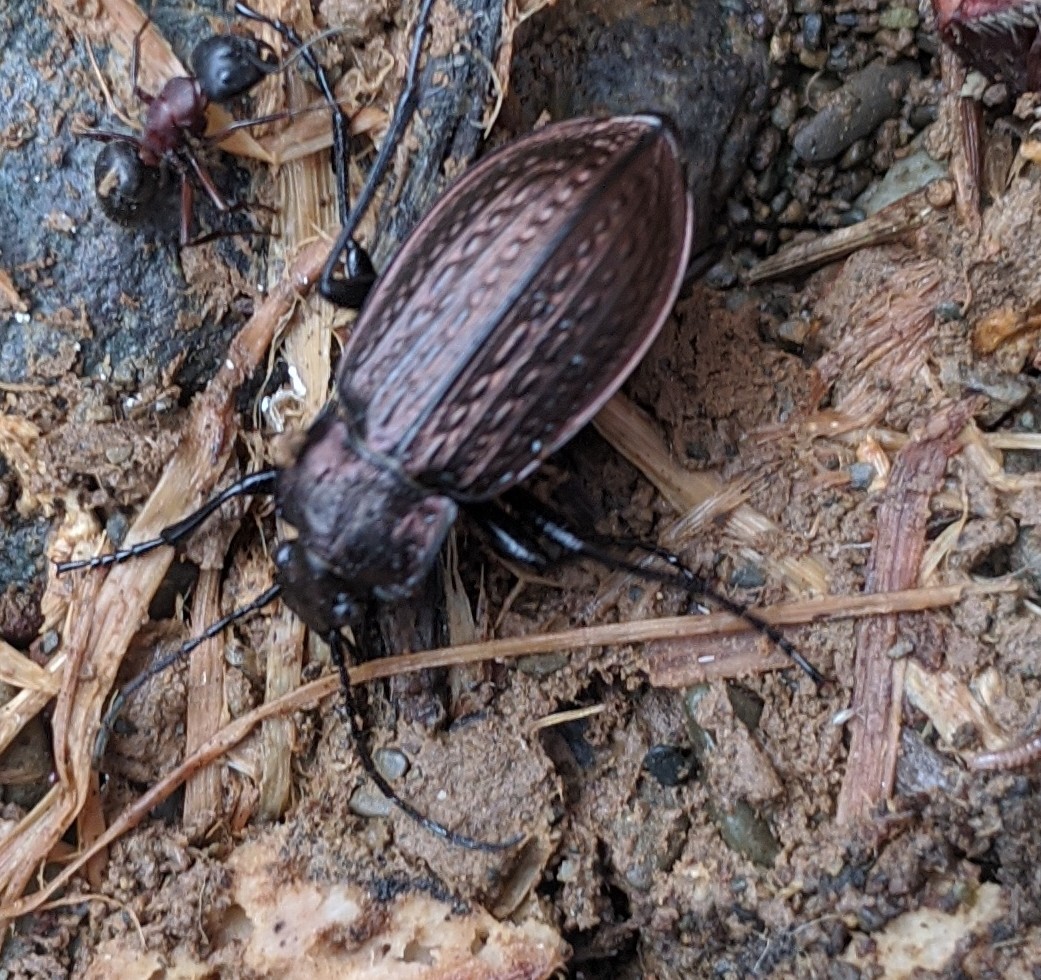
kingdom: Animalia
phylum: Arthropoda
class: Insecta
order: Hymenoptera
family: Formicidae
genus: Camponotus
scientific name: Camponotus novaeboracensis
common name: New york carpenter ant
